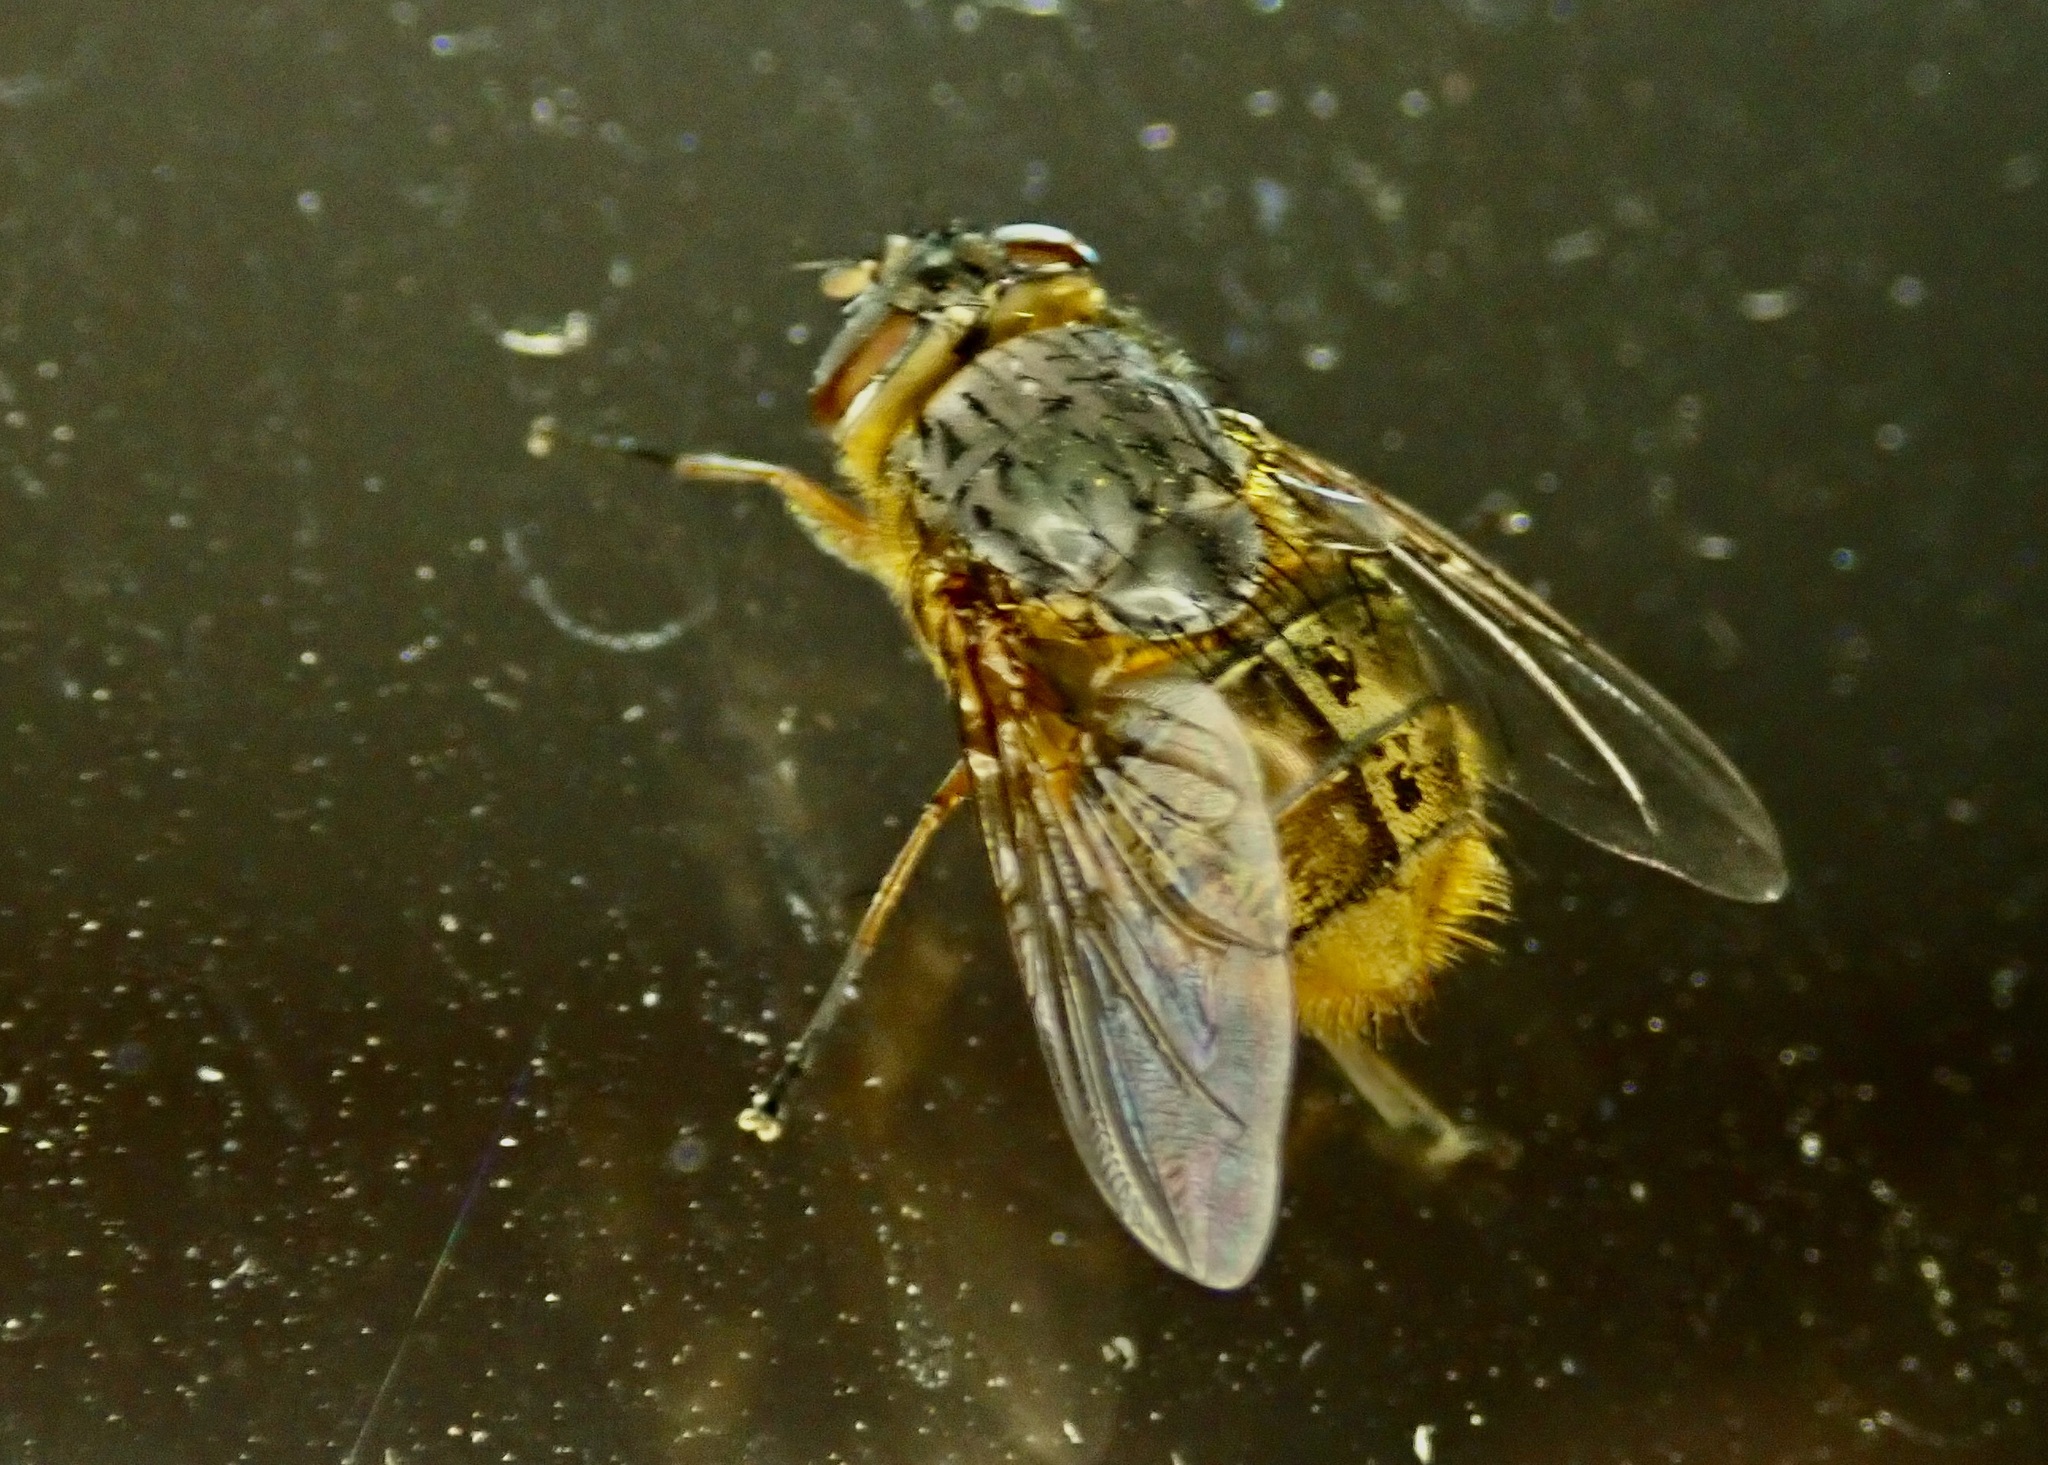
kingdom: Animalia
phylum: Arthropoda
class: Insecta
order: Diptera
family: Calliphoridae
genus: Calliphora
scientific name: Calliphora stygia
